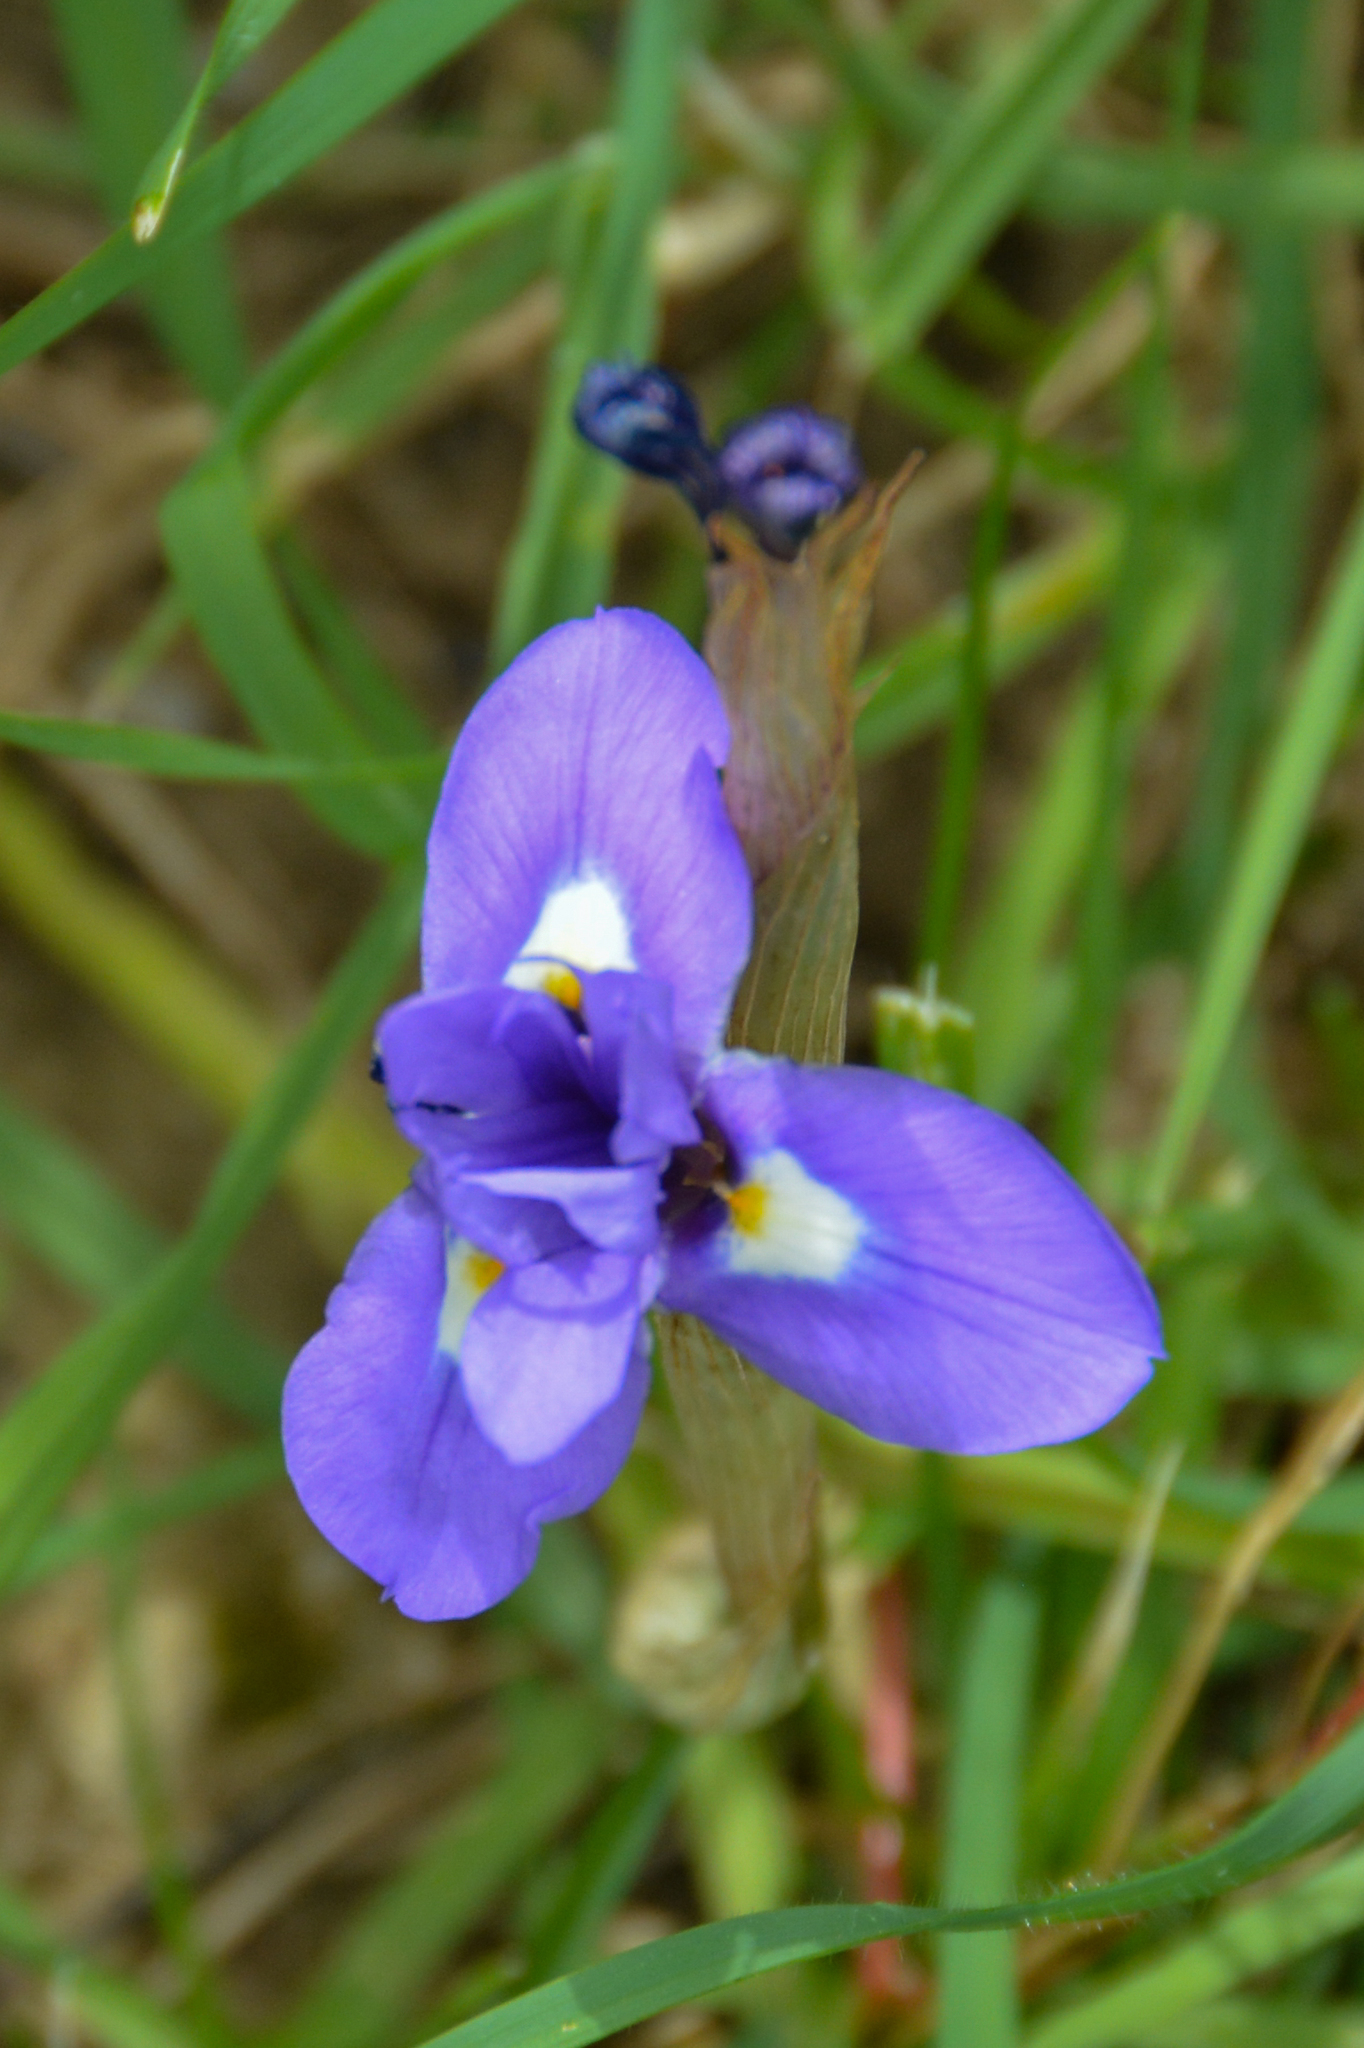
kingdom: Plantae
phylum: Tracheophyta
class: Liliopsida
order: Asparagales
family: Iridaceae
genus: Moraea
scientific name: Moraea sisyrinchium
